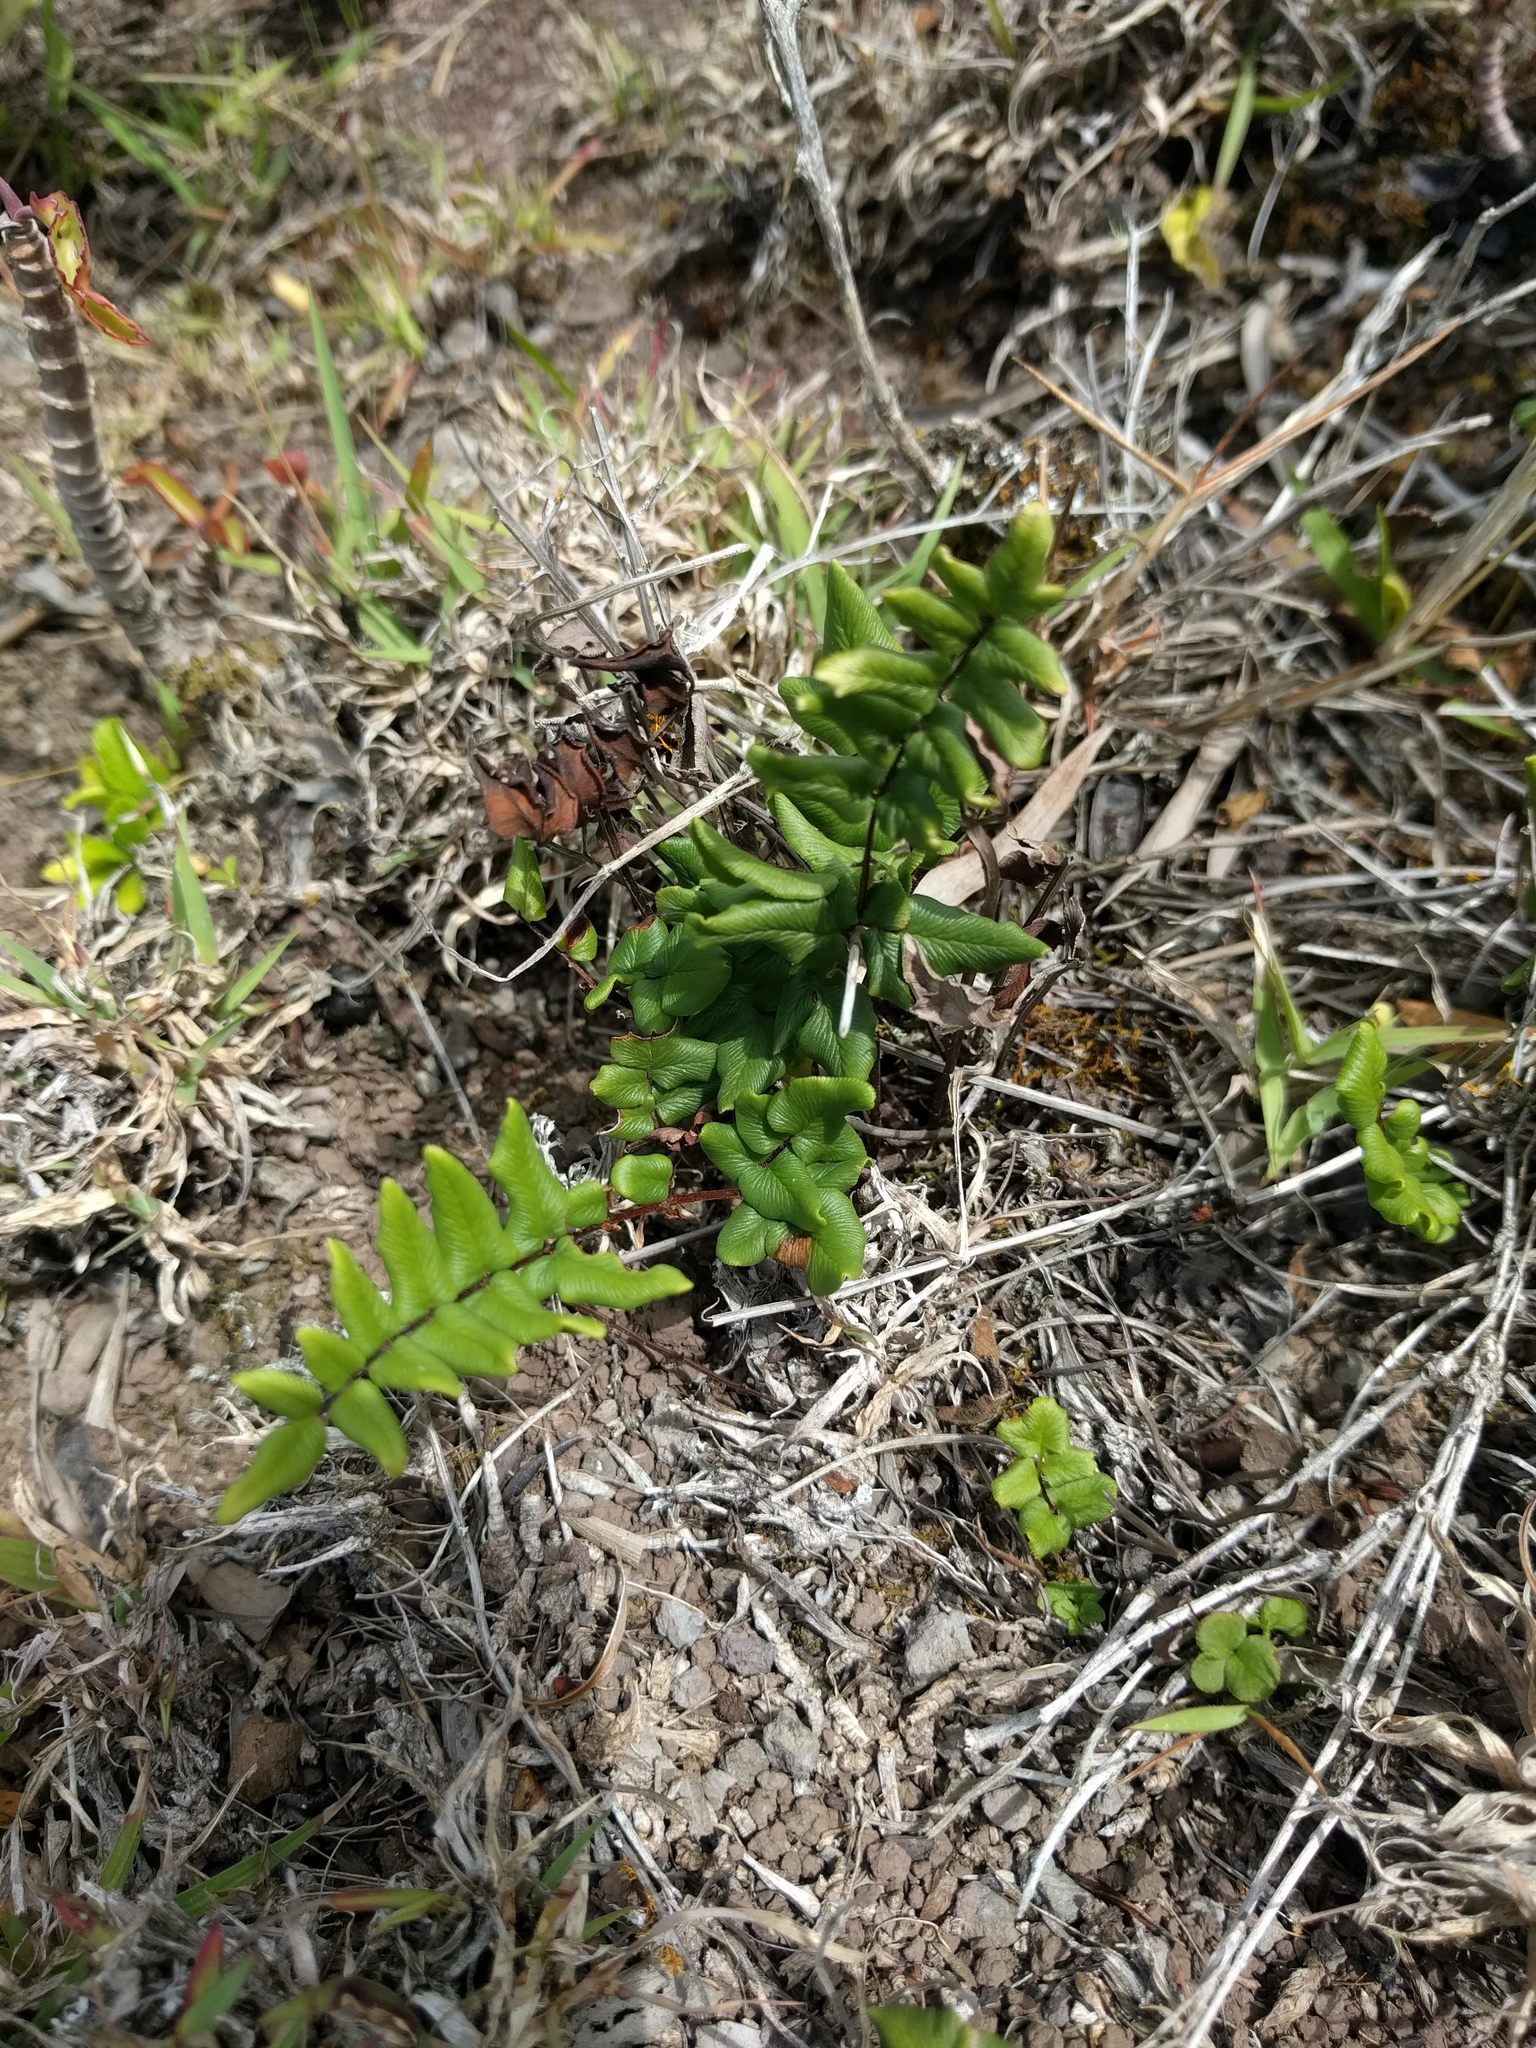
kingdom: Plantae
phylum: Tracheophyta
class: Polypodiopsida
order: Polypodiales
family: Pteridaceae
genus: Cheilanthes
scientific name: Cheilanthes viridis
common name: Green cliffbrake
